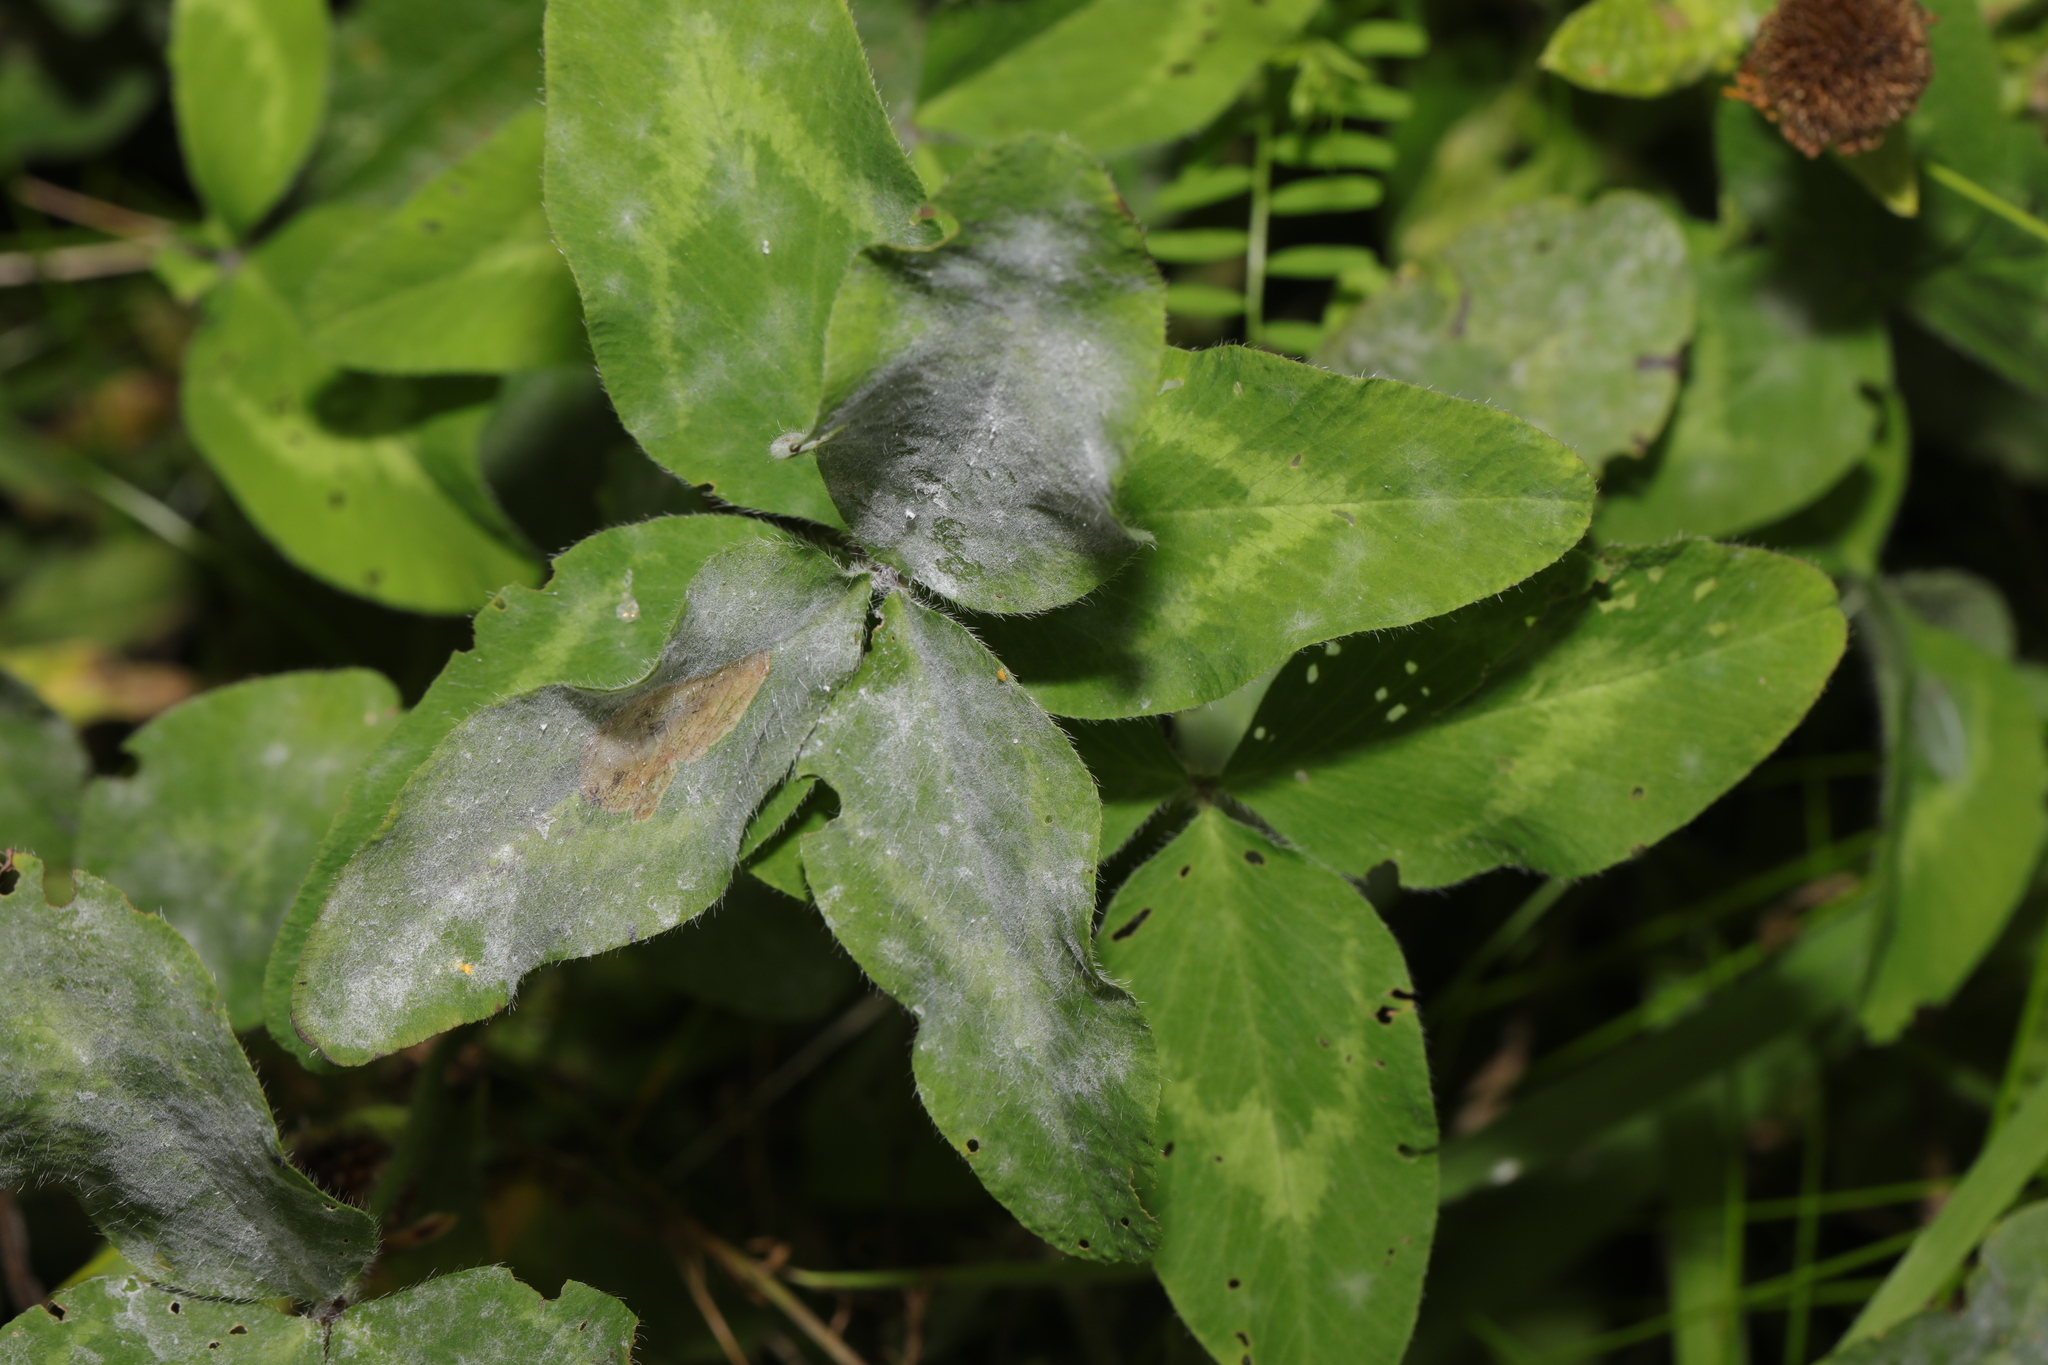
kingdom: Plantae
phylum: Tracheophyta
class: Magnoliopsida
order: Fabales
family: Fabaceae
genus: Trifolium
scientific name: Trifolium pratense
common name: Red clover
